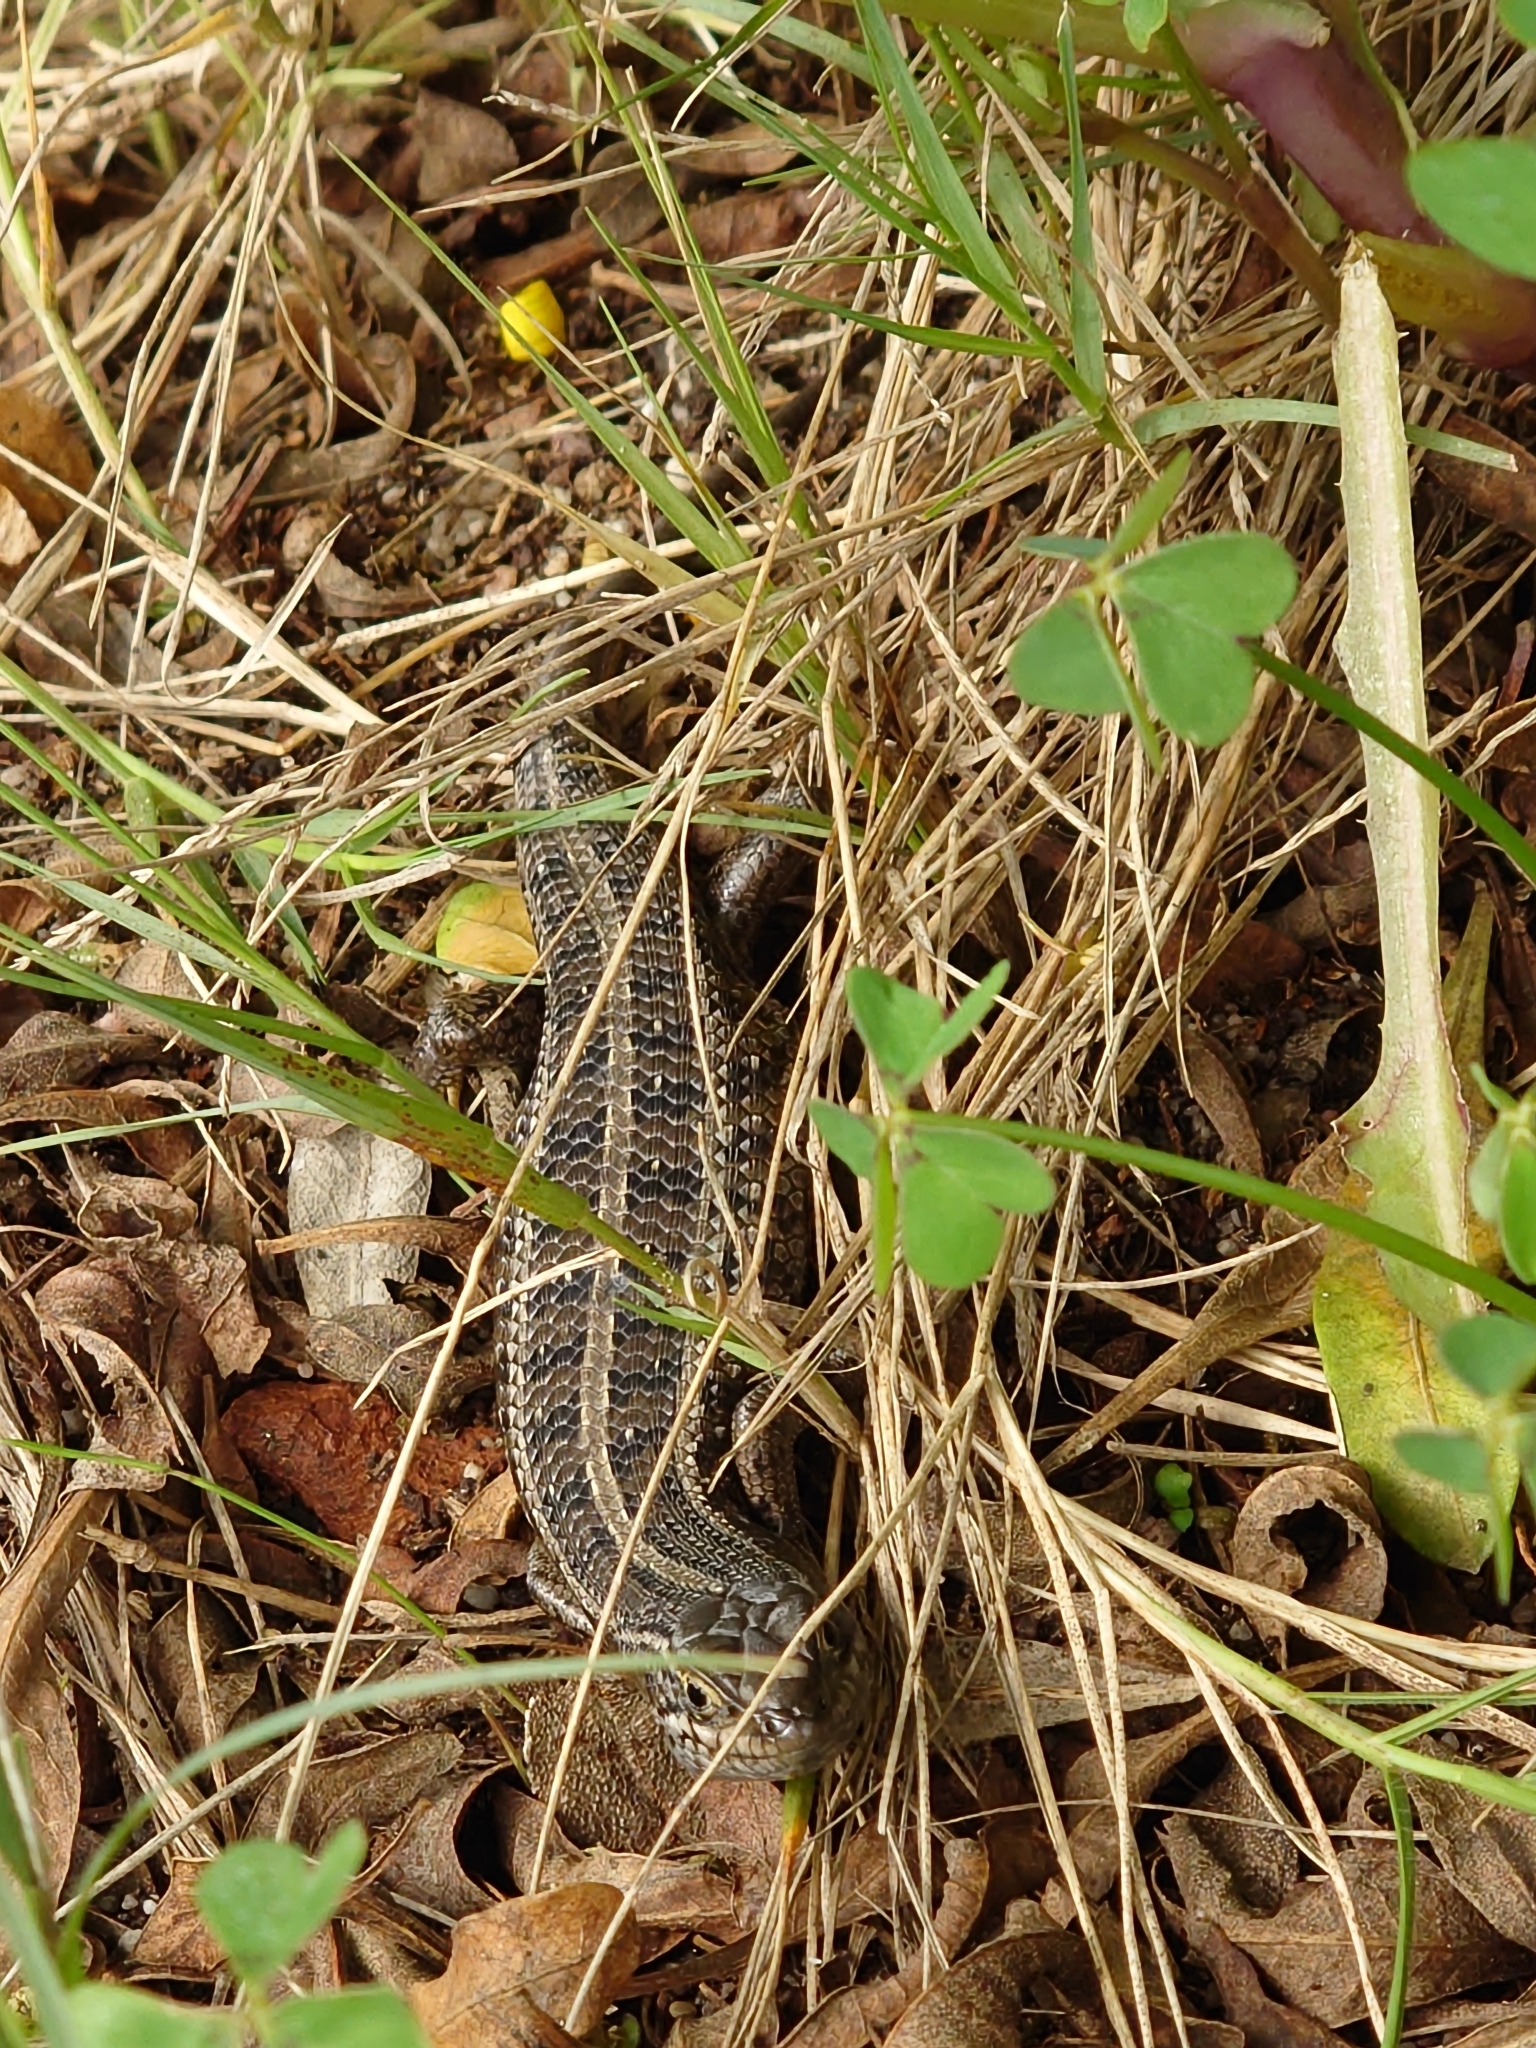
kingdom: Animalia
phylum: Chordata
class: Squamata
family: Scincidae
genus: Trachylepis
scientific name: Trachylepis capensis
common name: Cape skink
